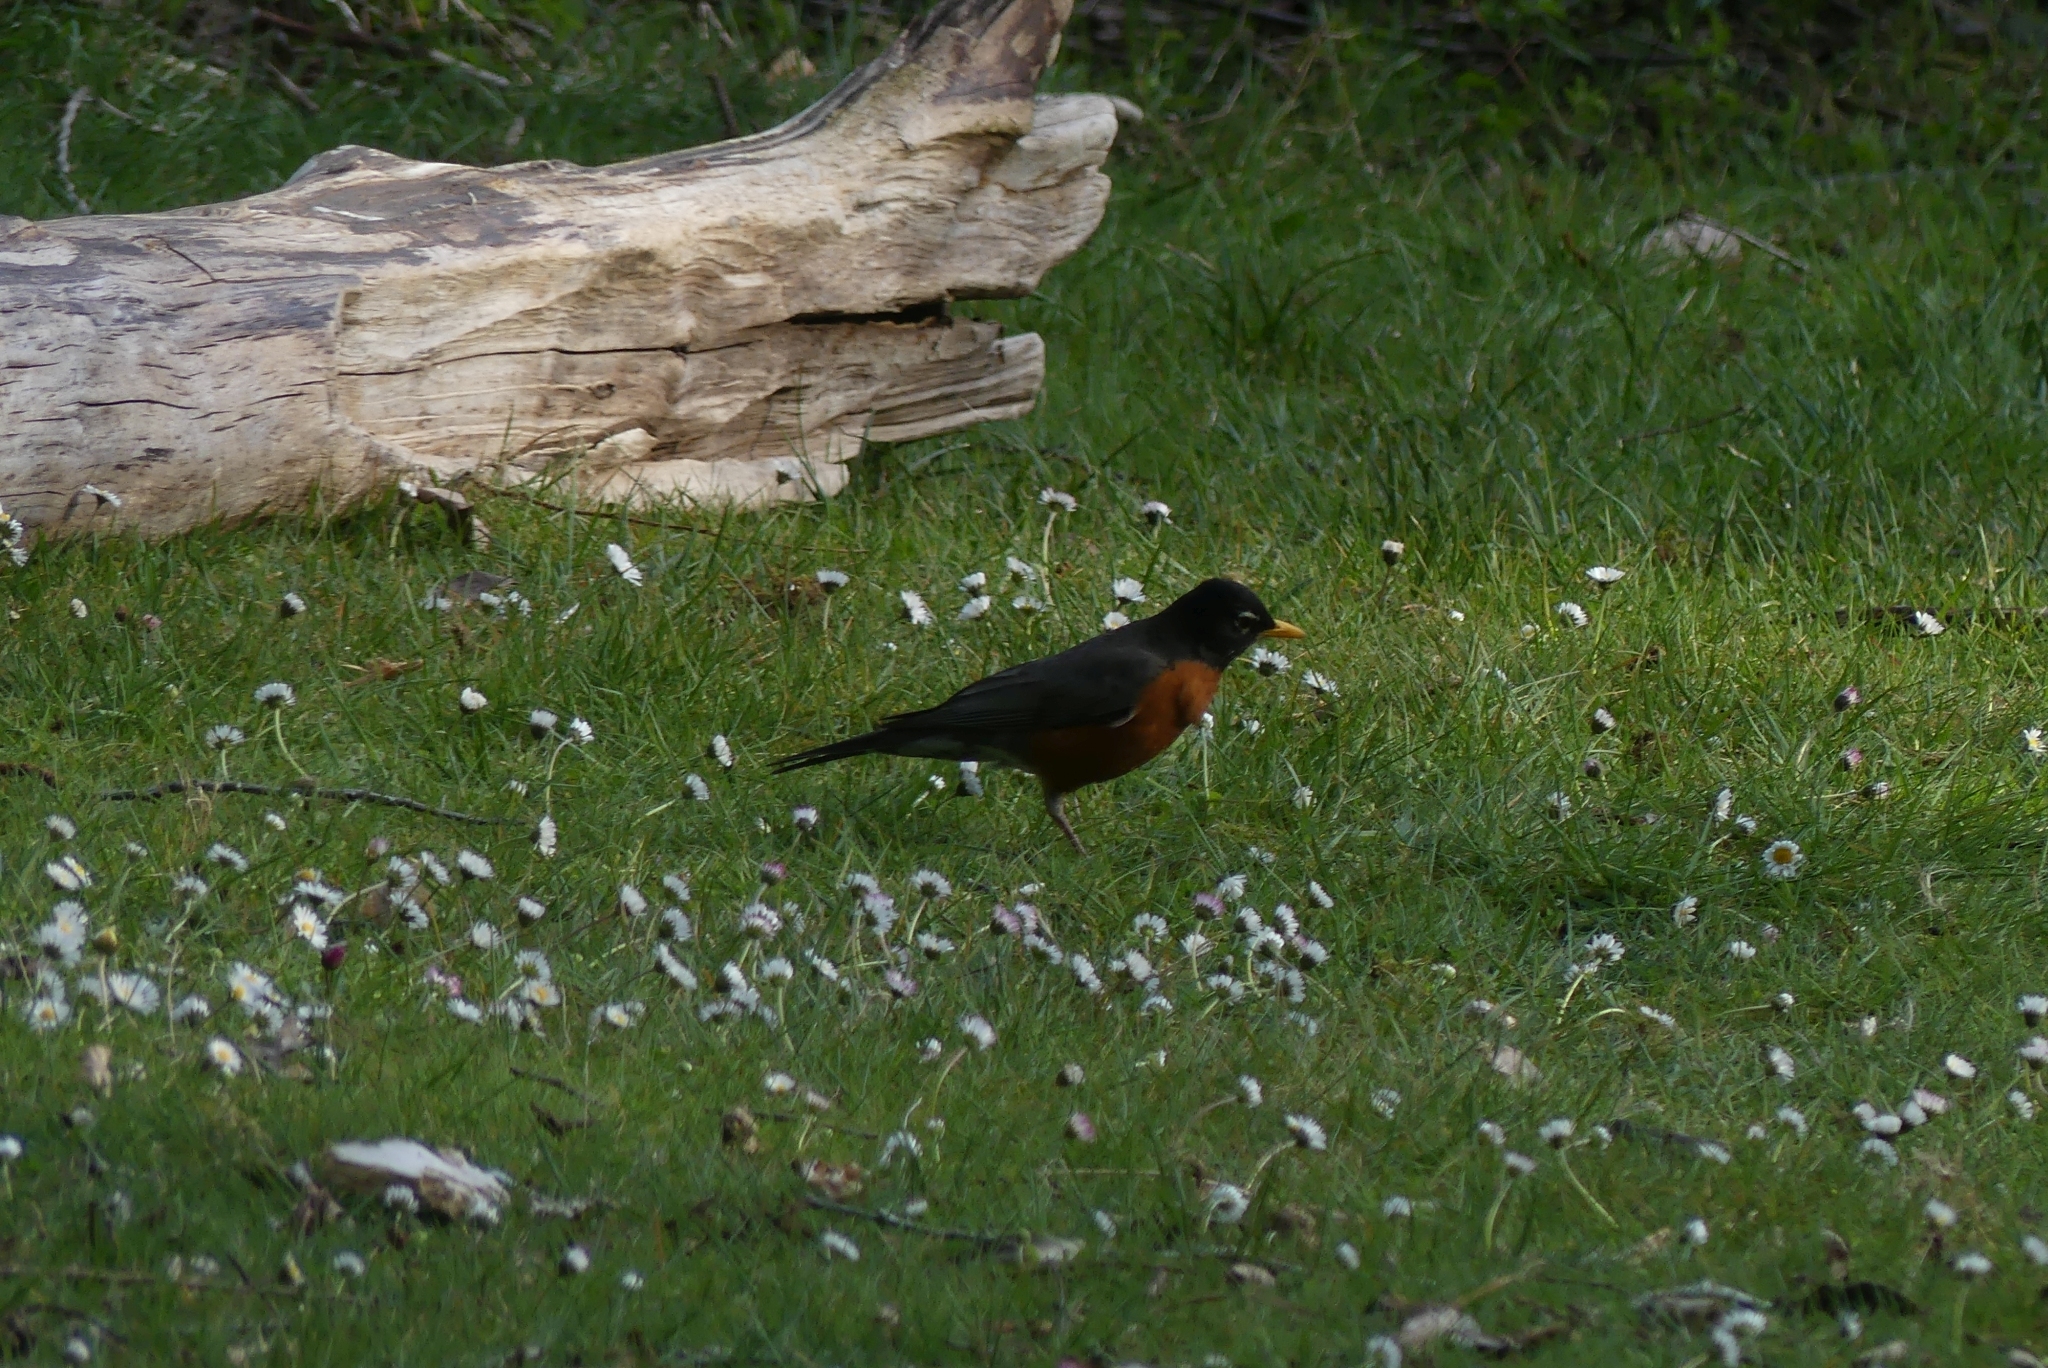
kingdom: Animalia
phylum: Chordata
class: Aves
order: Passeriformes
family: Turdidae
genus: Turdus
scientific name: Turdus migratorius
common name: American robin
